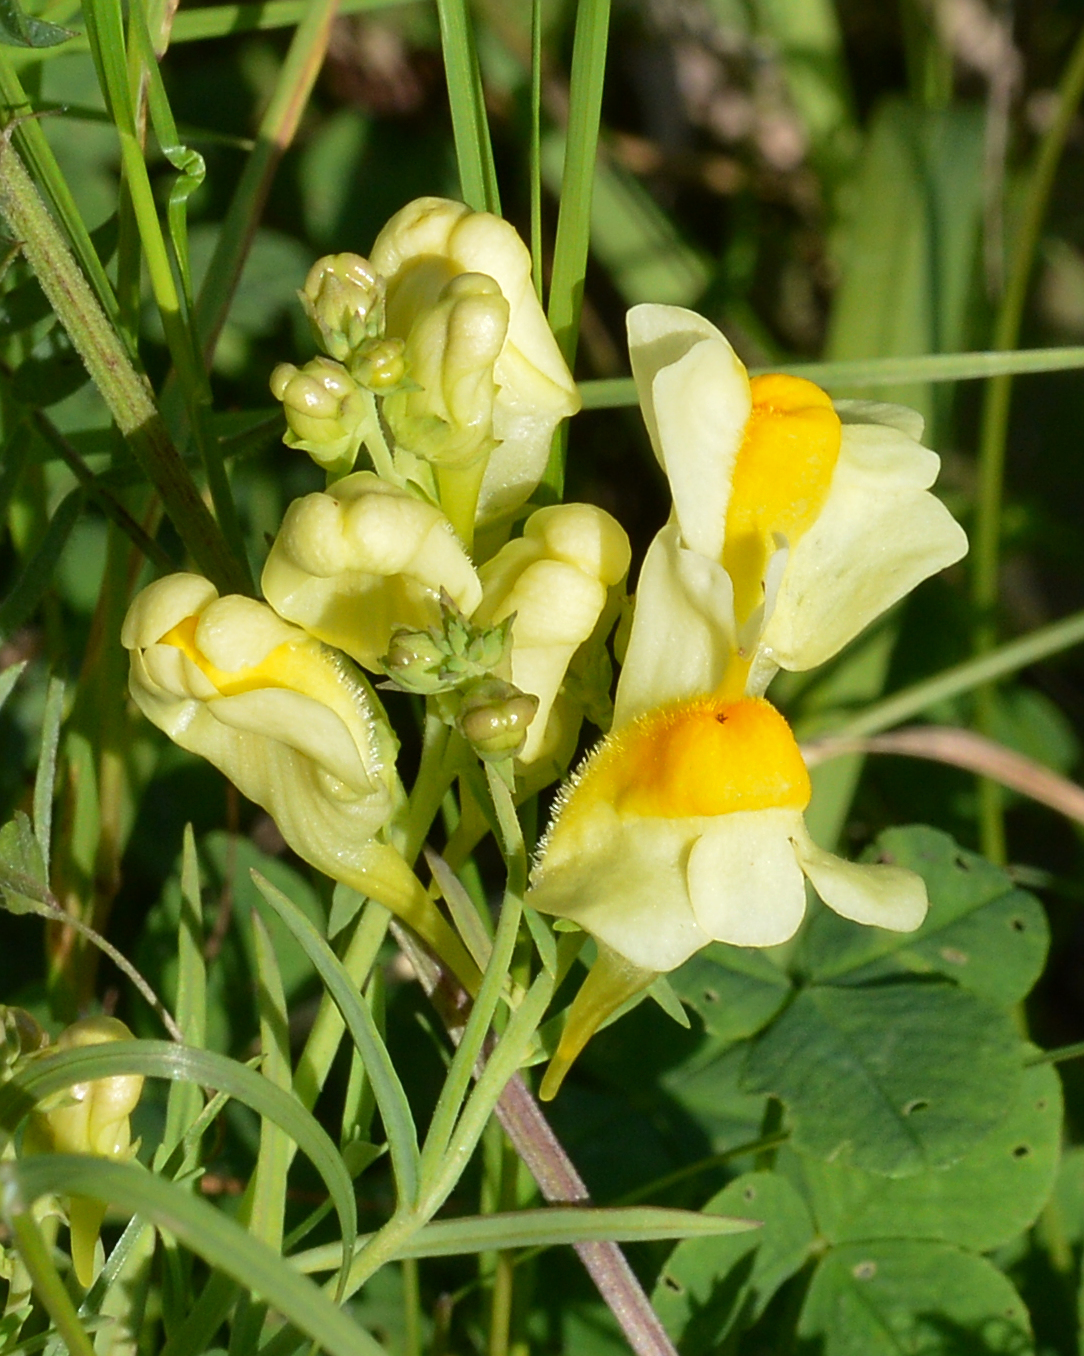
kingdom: Plantae
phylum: Tracheophyta
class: Magnoliopsida
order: Lamiales
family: Plantaginaceae
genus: Linaria
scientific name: Linaria vulgaris
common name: Butter and eggs
